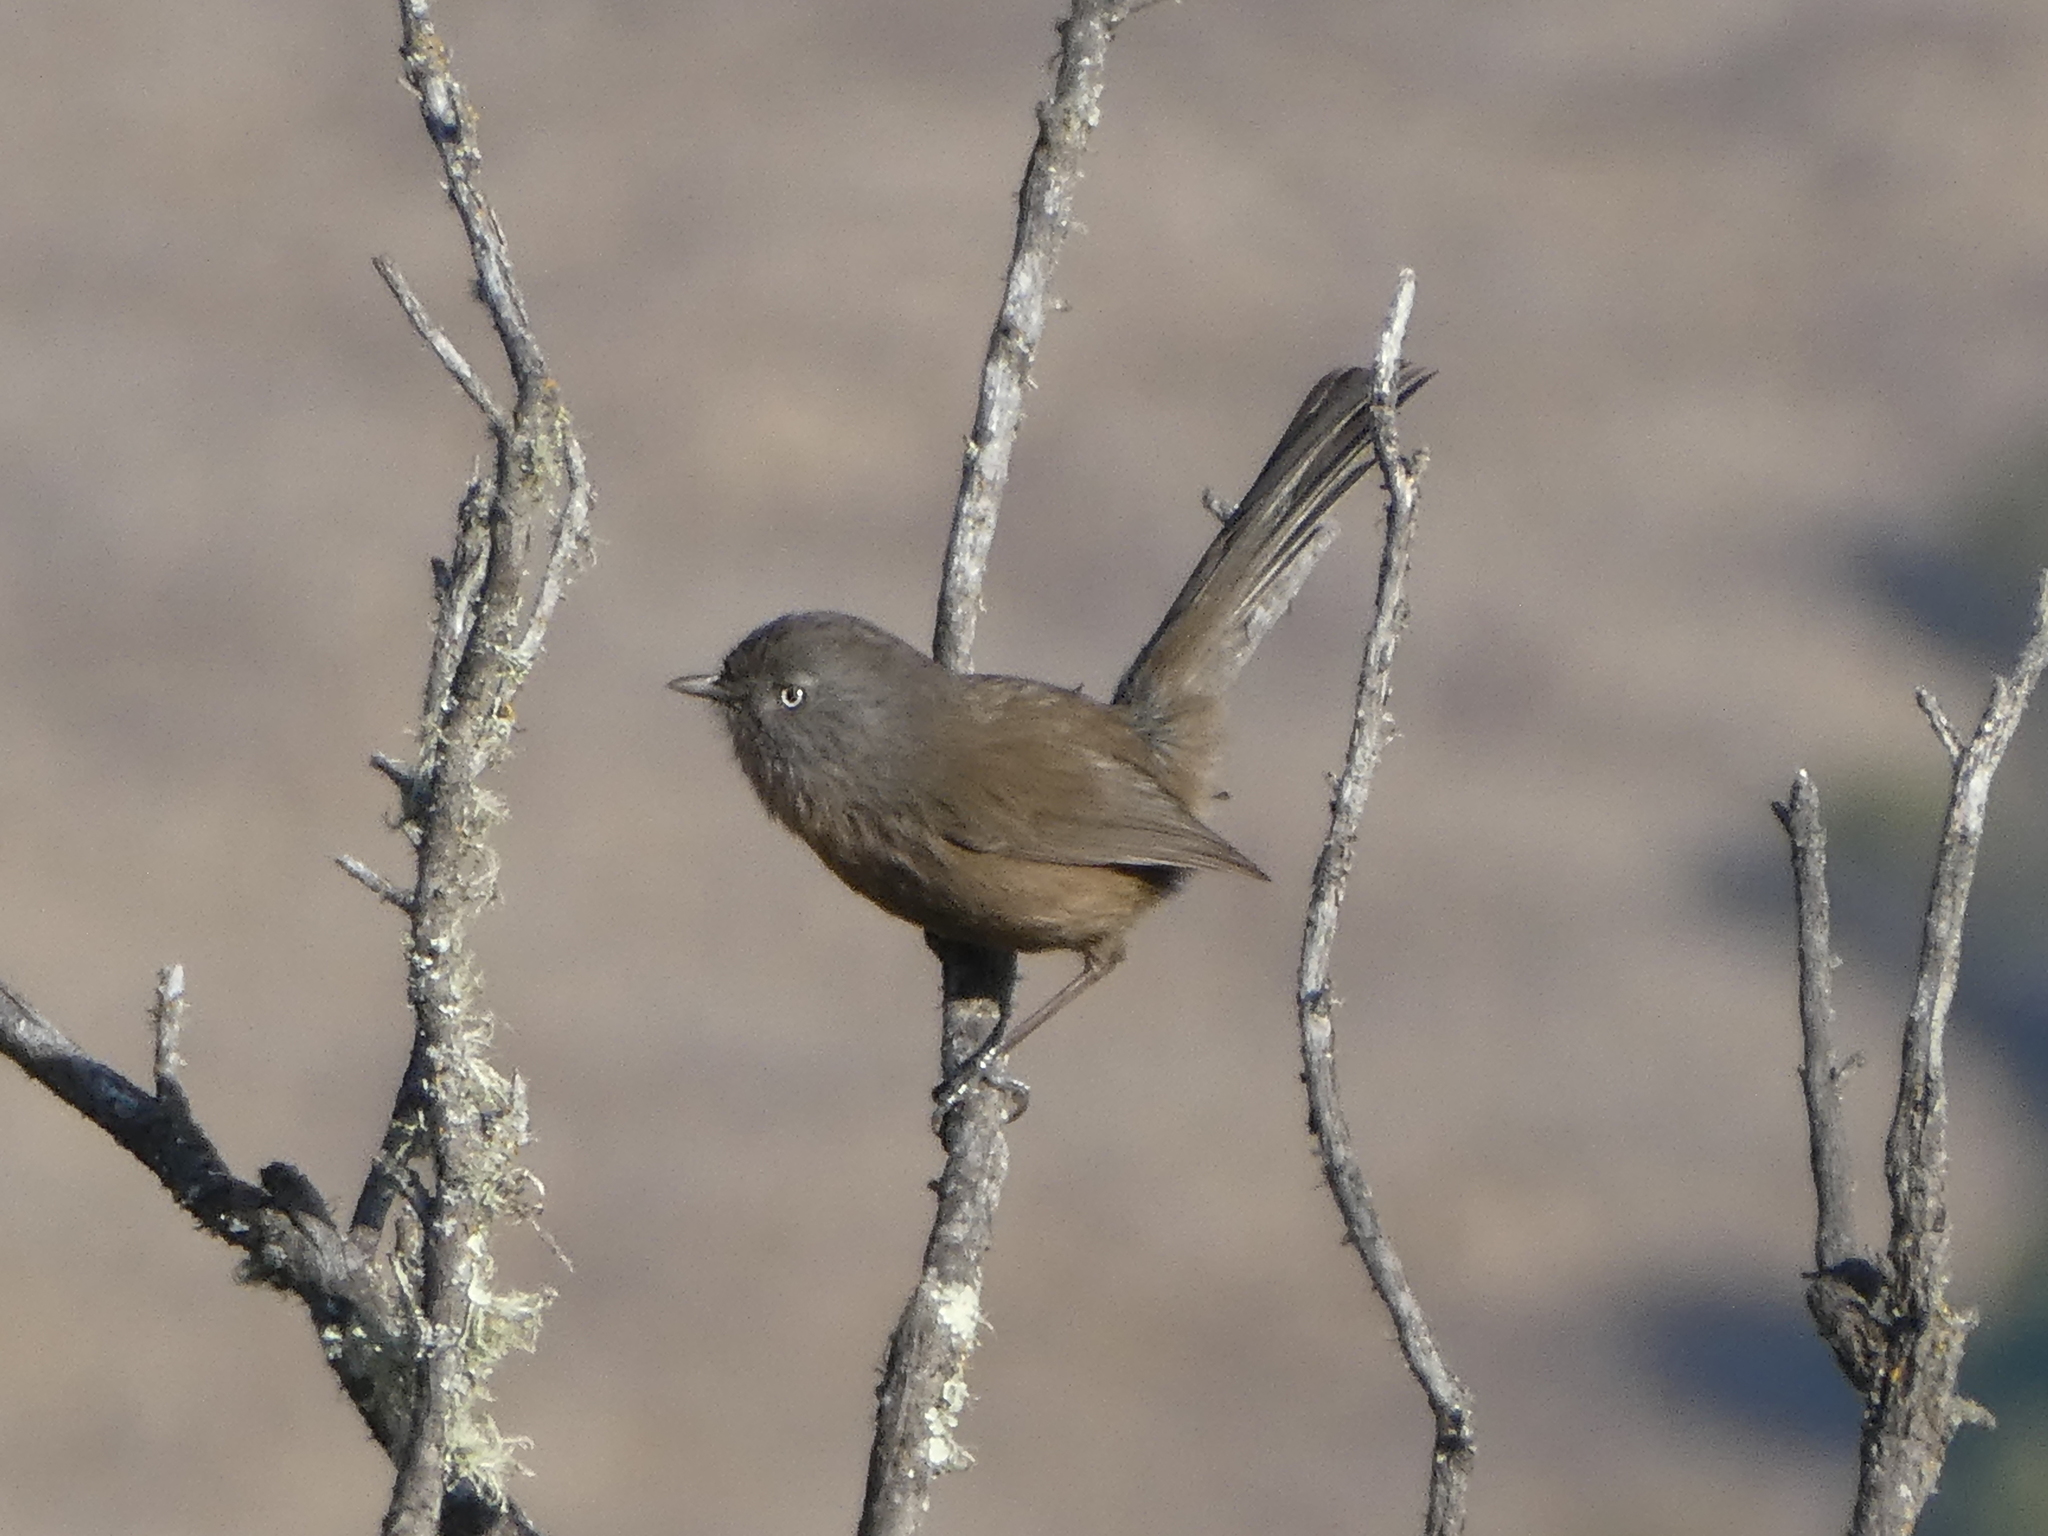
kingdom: Animalia
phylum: Chordata
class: Aves
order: Passeriformes
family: Sylviidae
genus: Chamaea
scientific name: Chamaea fasciata
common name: Wrentit
